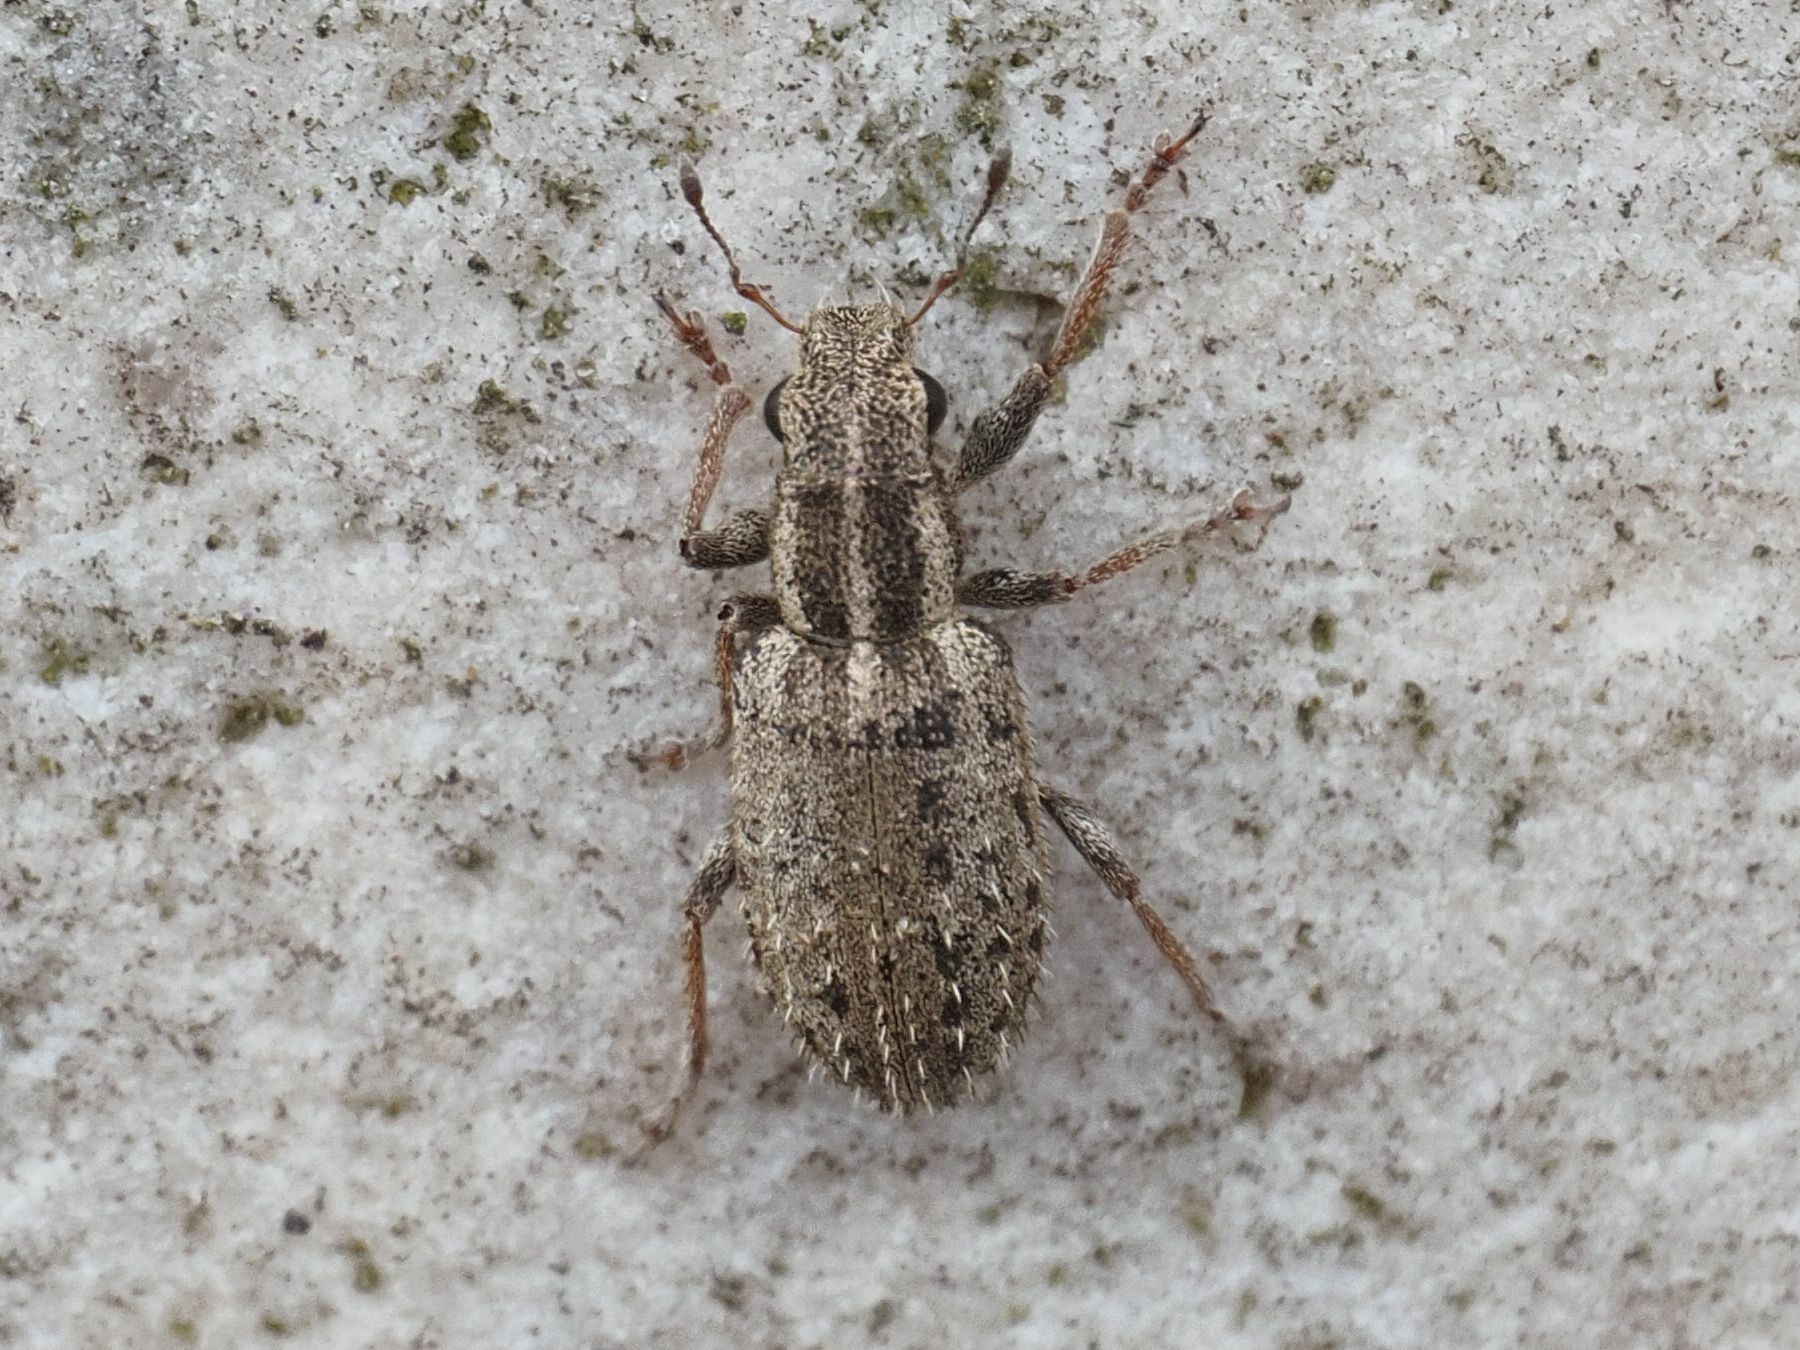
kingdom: Animalia
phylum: Arthropoda
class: Insecta
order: Coleoptera
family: Curculionidae
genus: Sitona
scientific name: Sitona macularius
